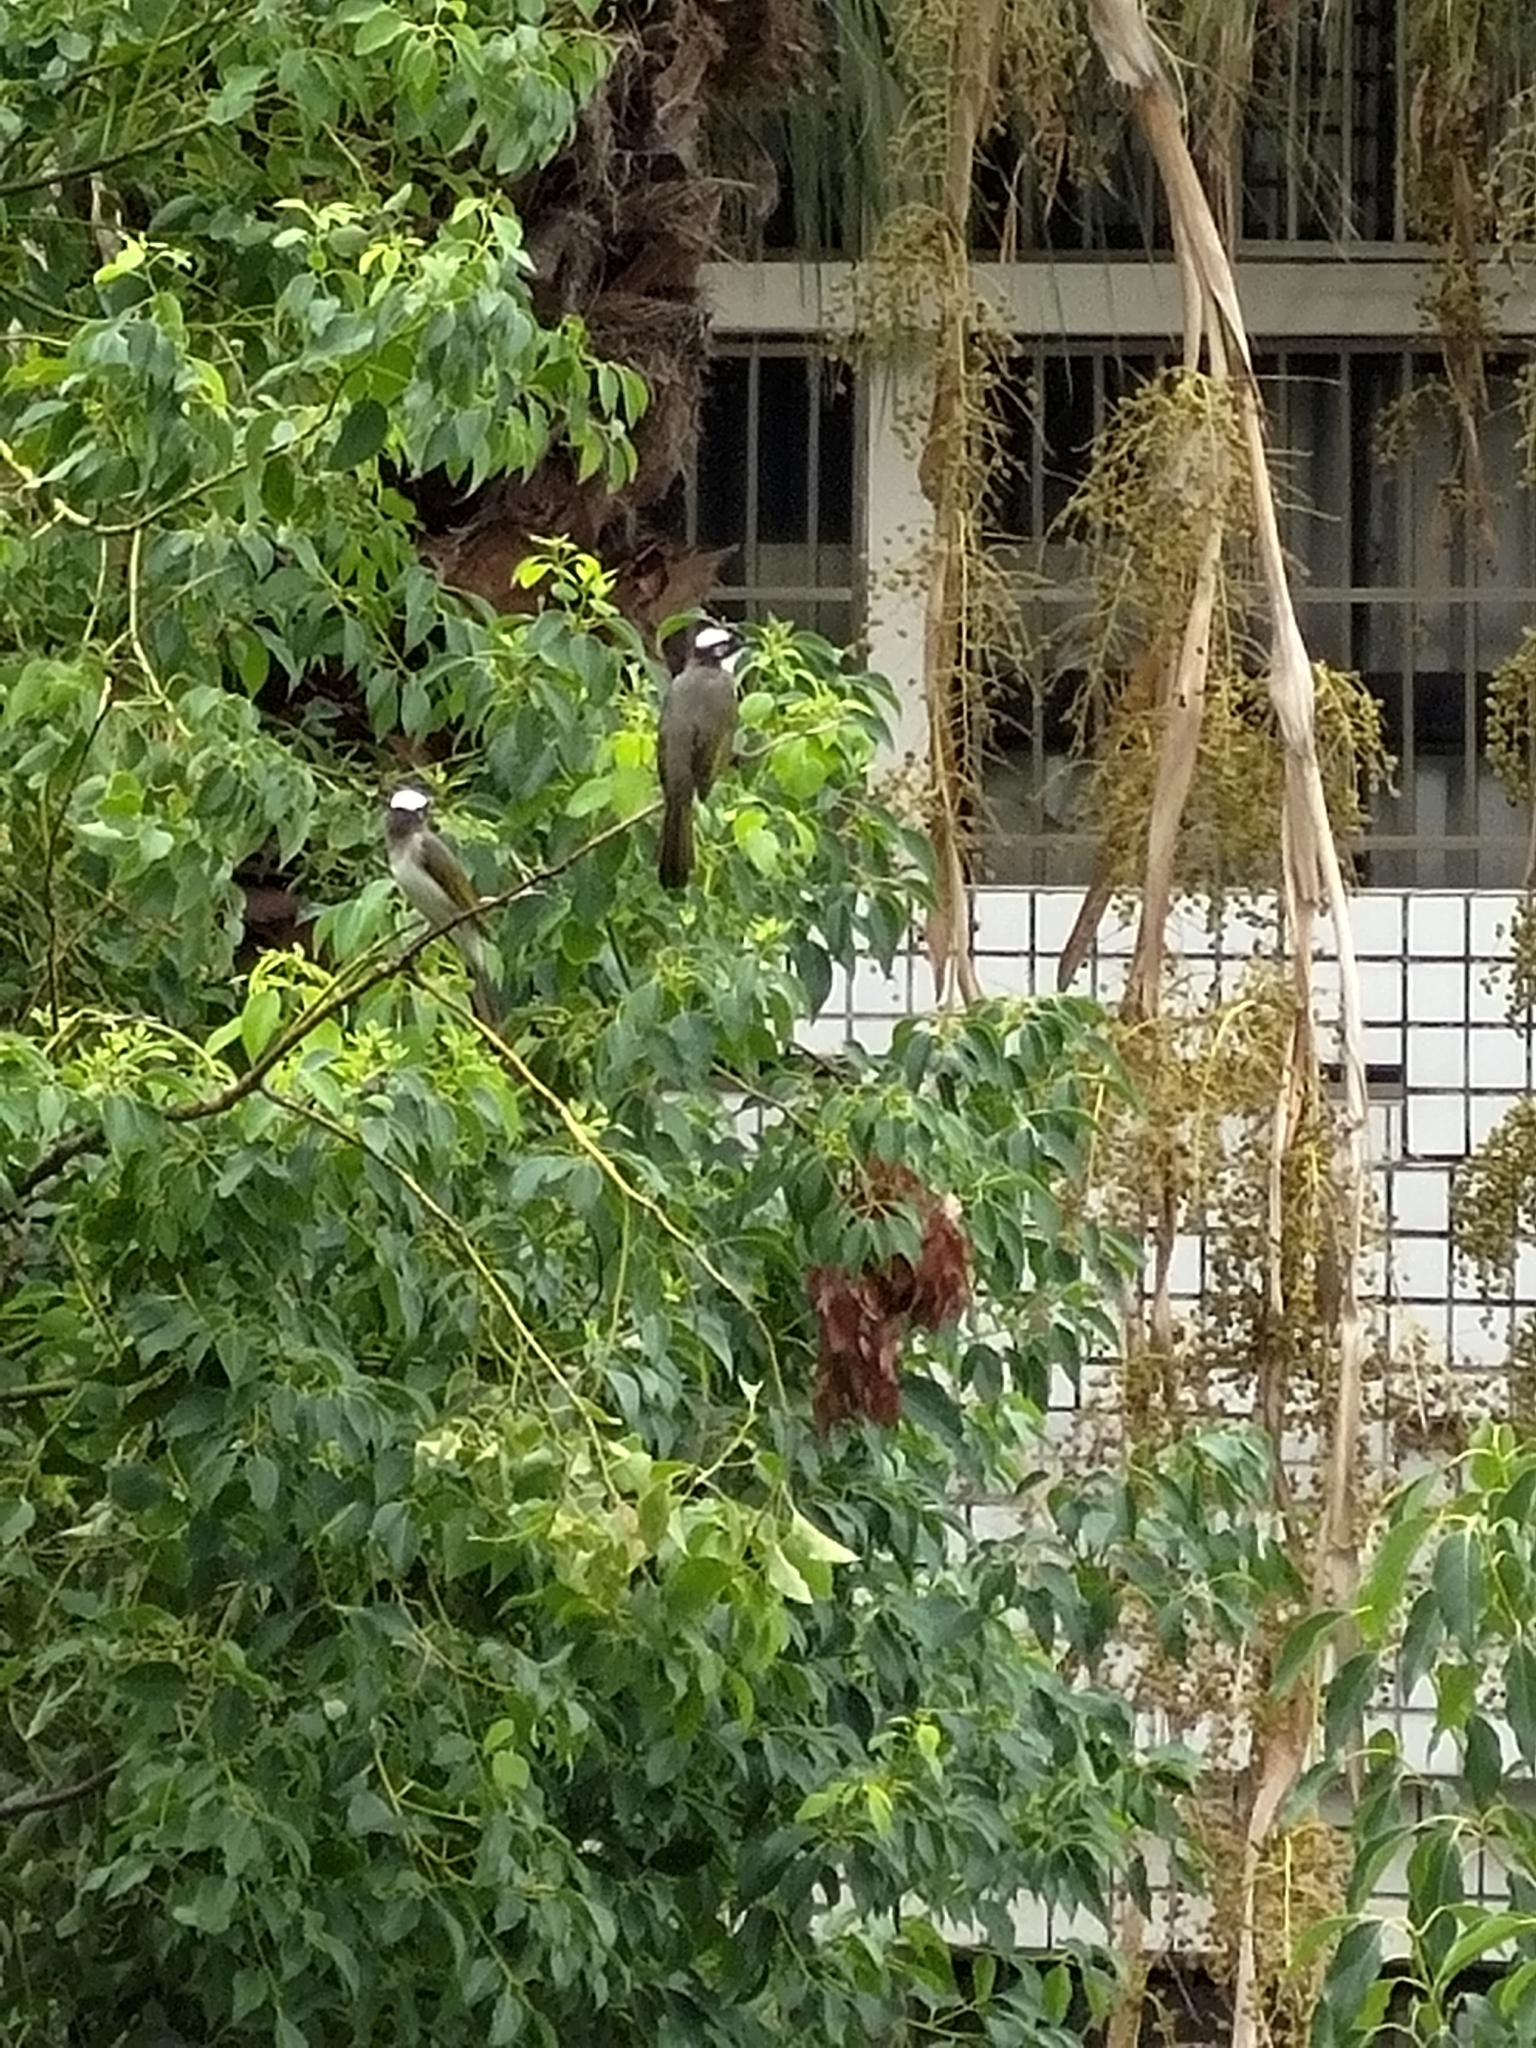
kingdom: Animalia
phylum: Chordata
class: Aves
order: Passeriformes
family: Pycnonotidae
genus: Pycnonotus
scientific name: Pycnonotus sinensis
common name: Light-vented bulbul
